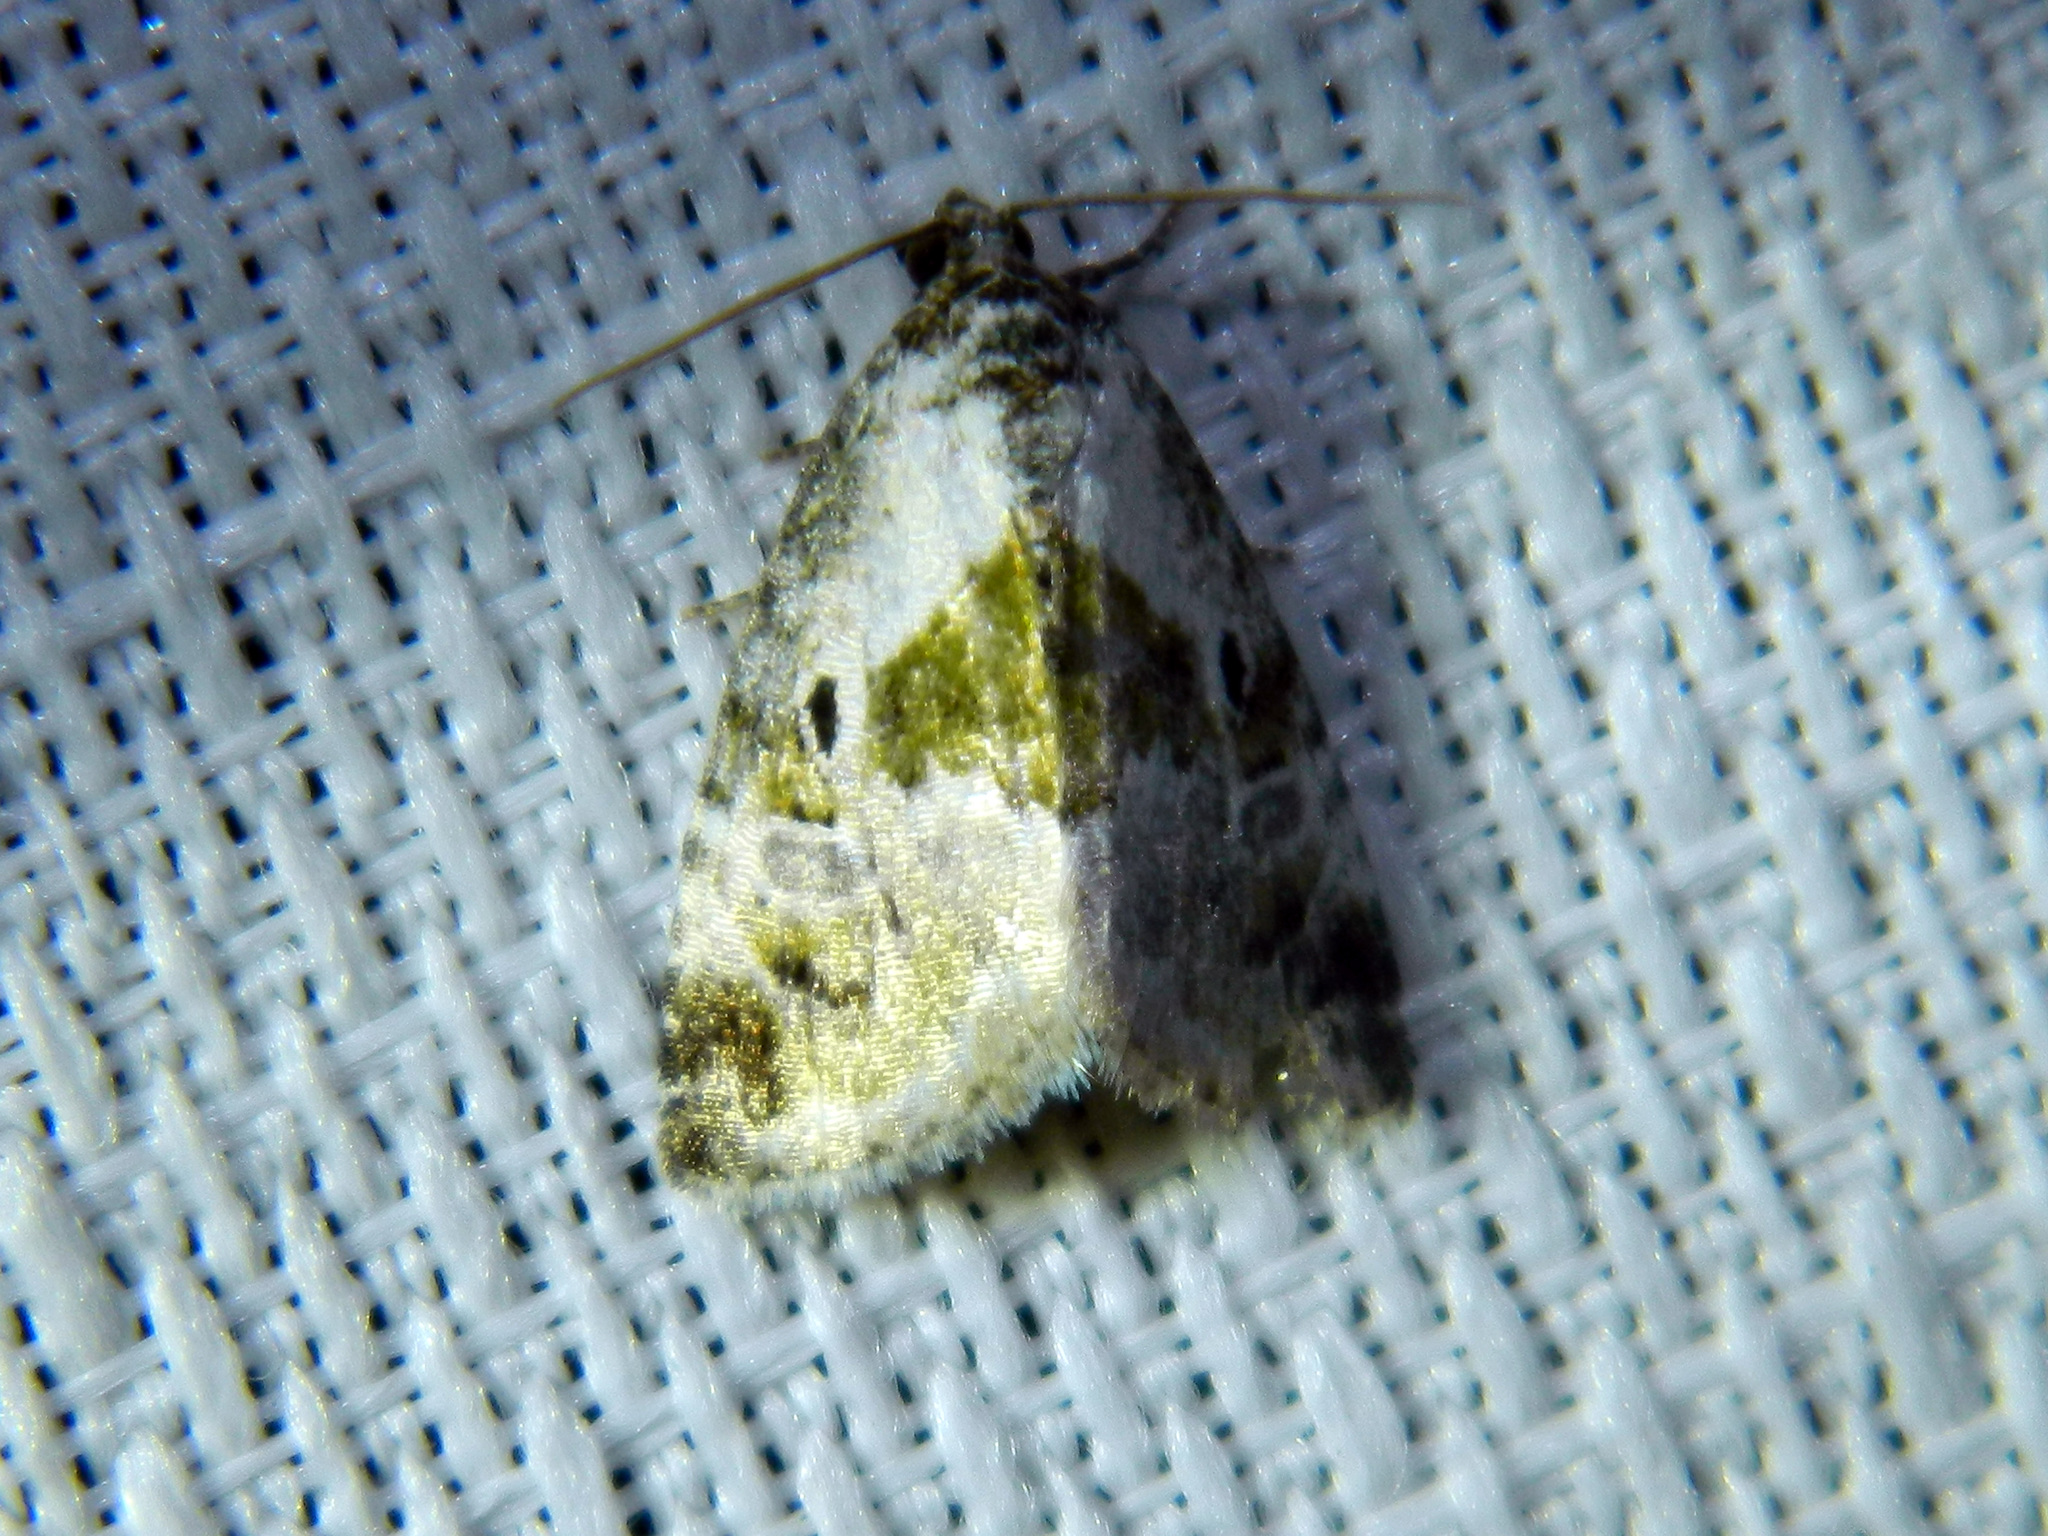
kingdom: Animalia
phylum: Arthropoda
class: Insecta
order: Lepidoptera
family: Noctuidae
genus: Maliattha
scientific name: Maliattha synochitis
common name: Black-dotted glyph
